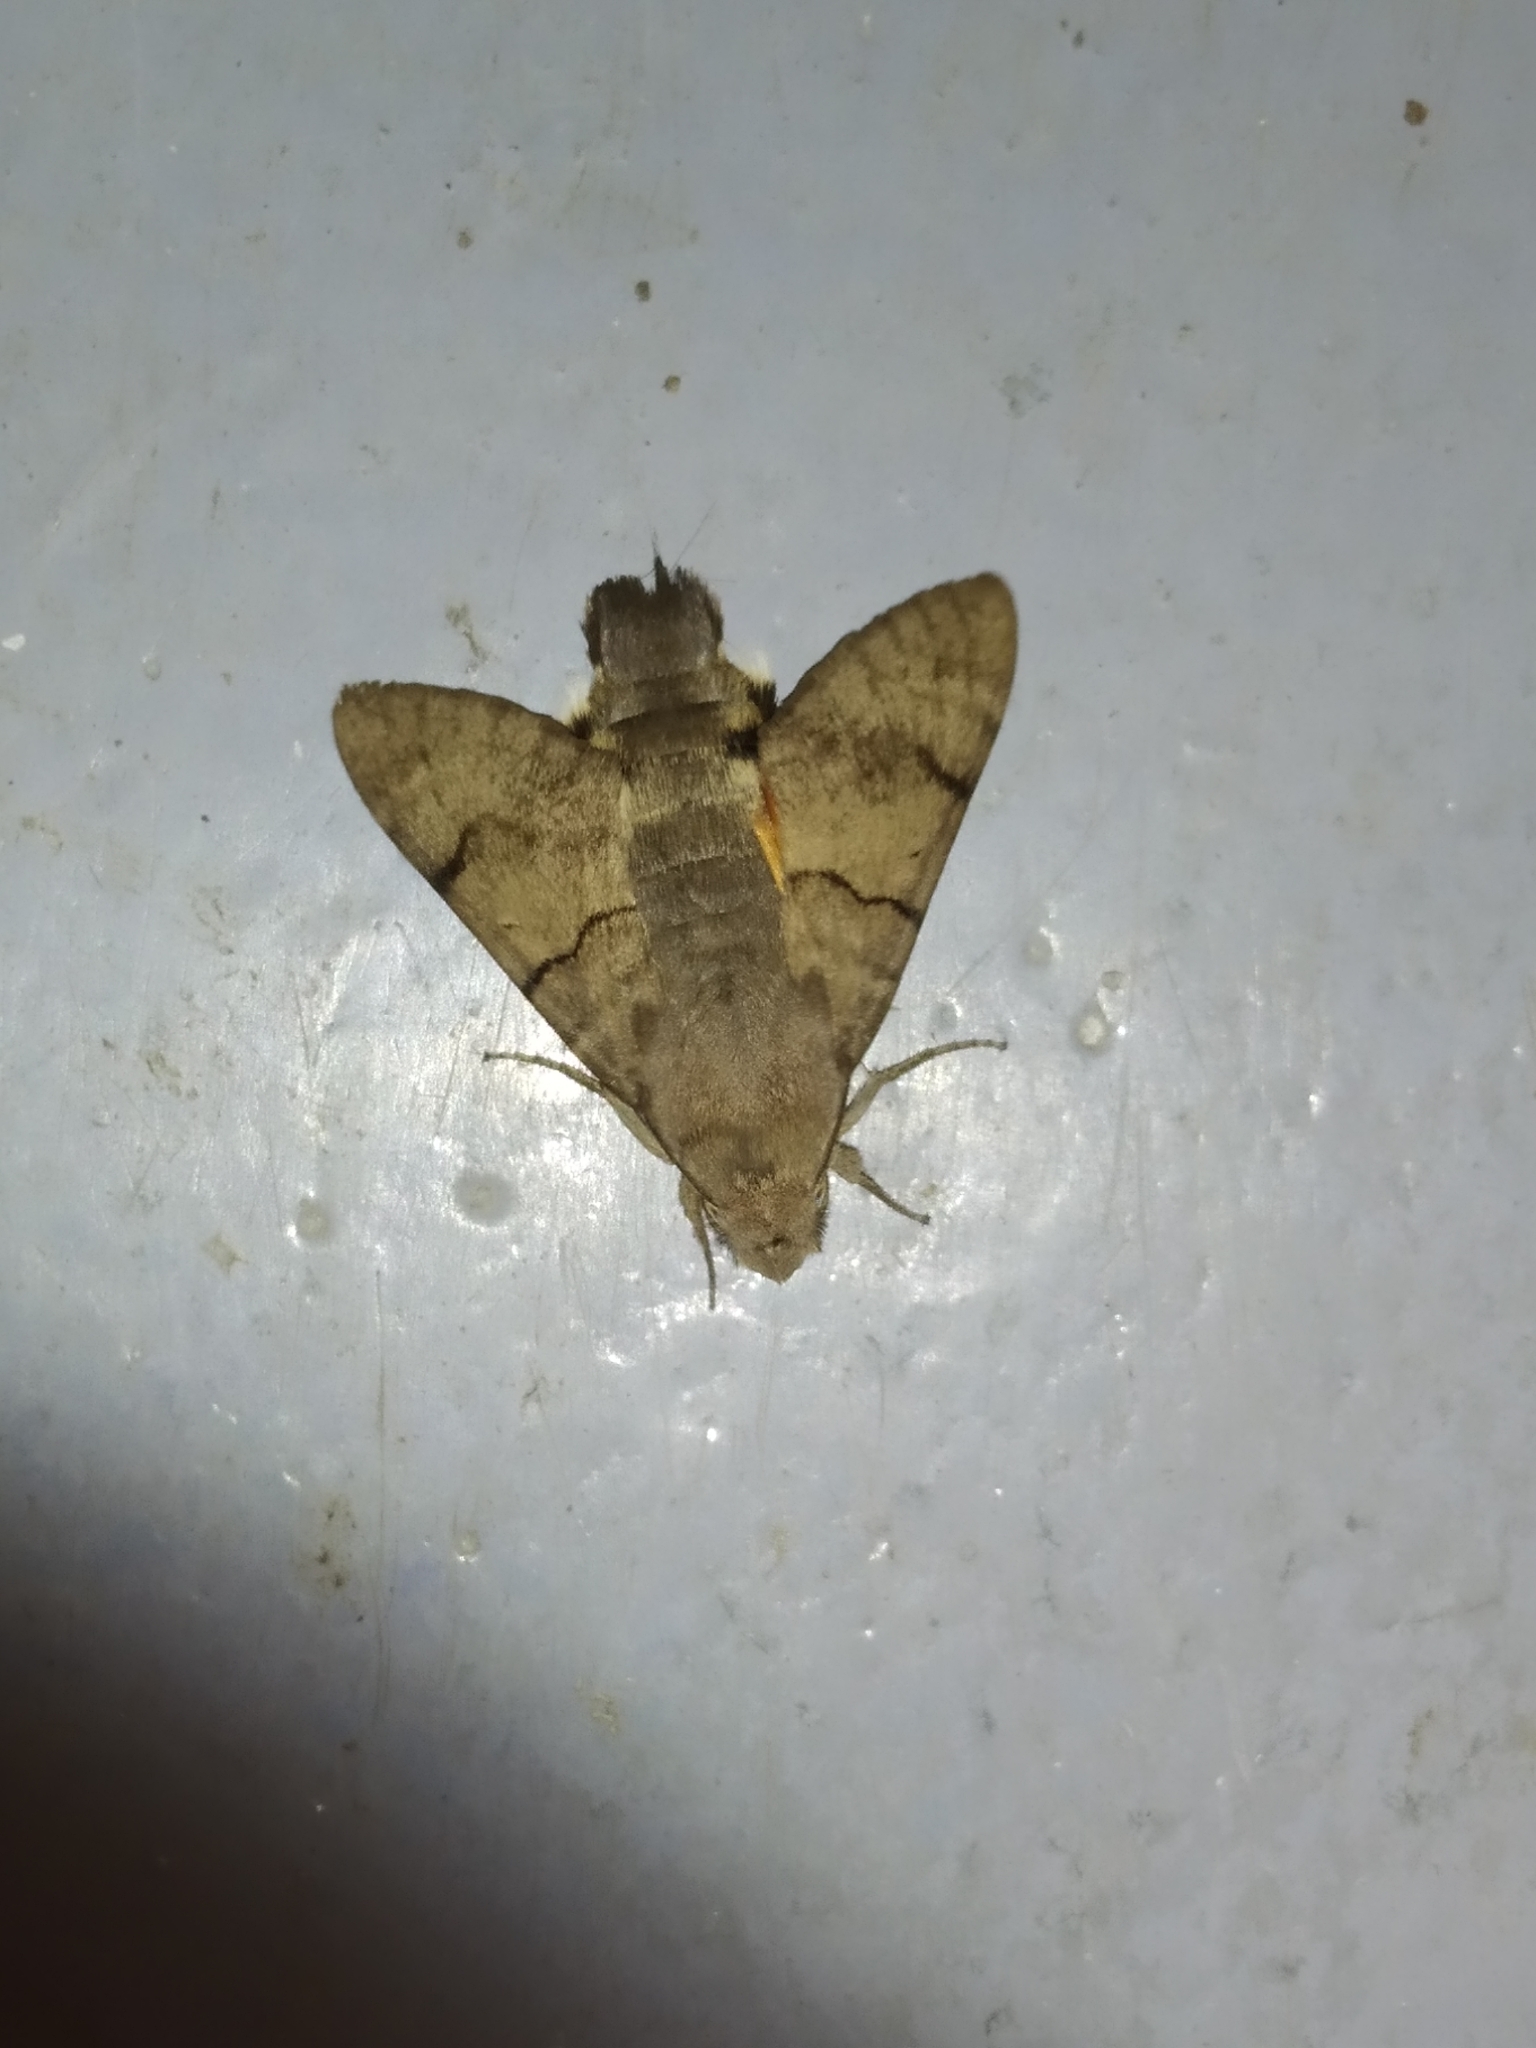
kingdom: Animalia
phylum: Arthropoda
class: Insecta
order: Lepidoptera
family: Sphingidae
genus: Macroglossum
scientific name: Macroglossum stellatarum
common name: Humming-bird hawk-moth
